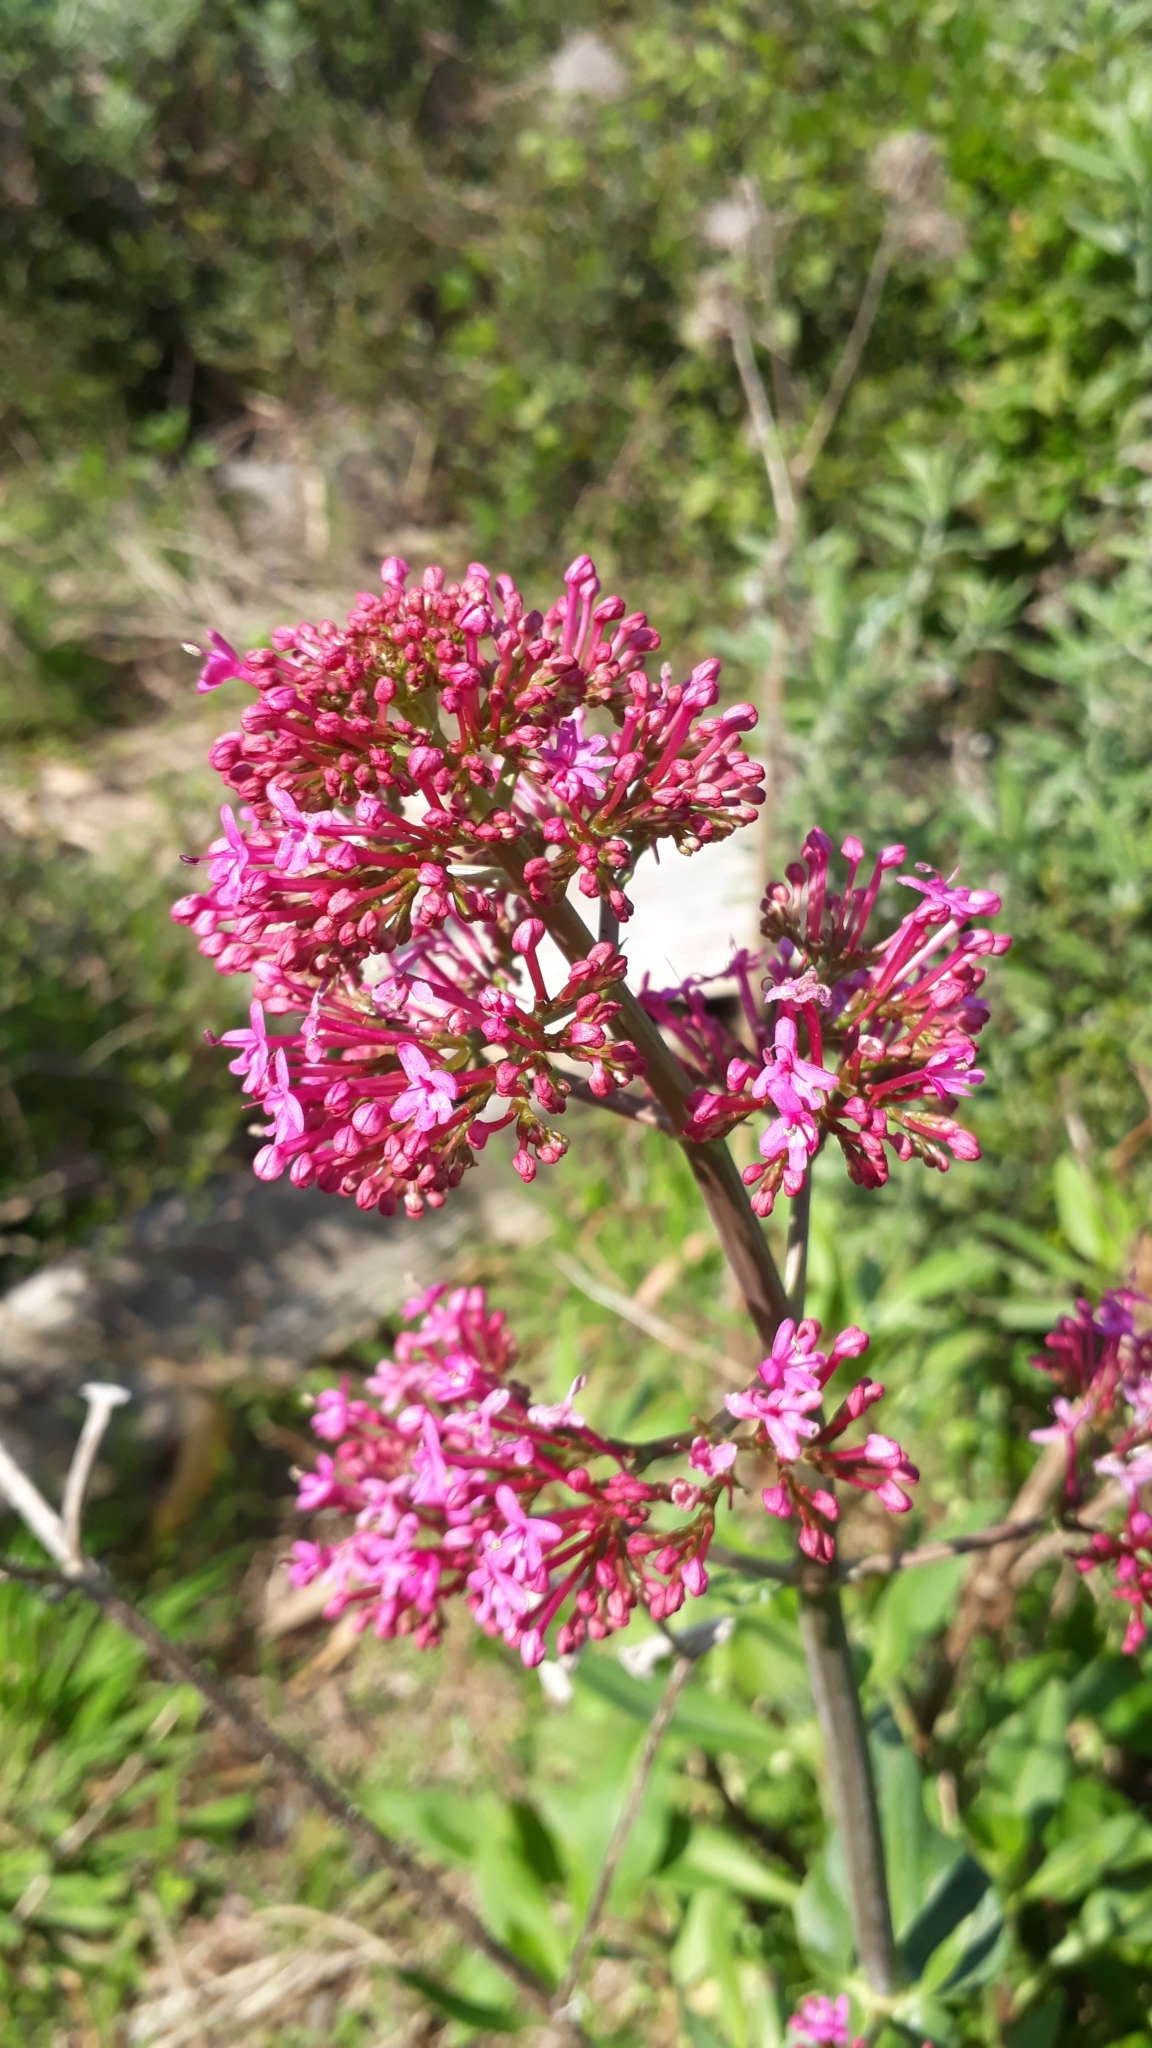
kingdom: Plantae
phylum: Tracheophyta
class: Magnoliopsida
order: Dipsacales
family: Caprifoliaceae
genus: Centranthus
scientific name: Centranthus ruber
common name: Red valerian
